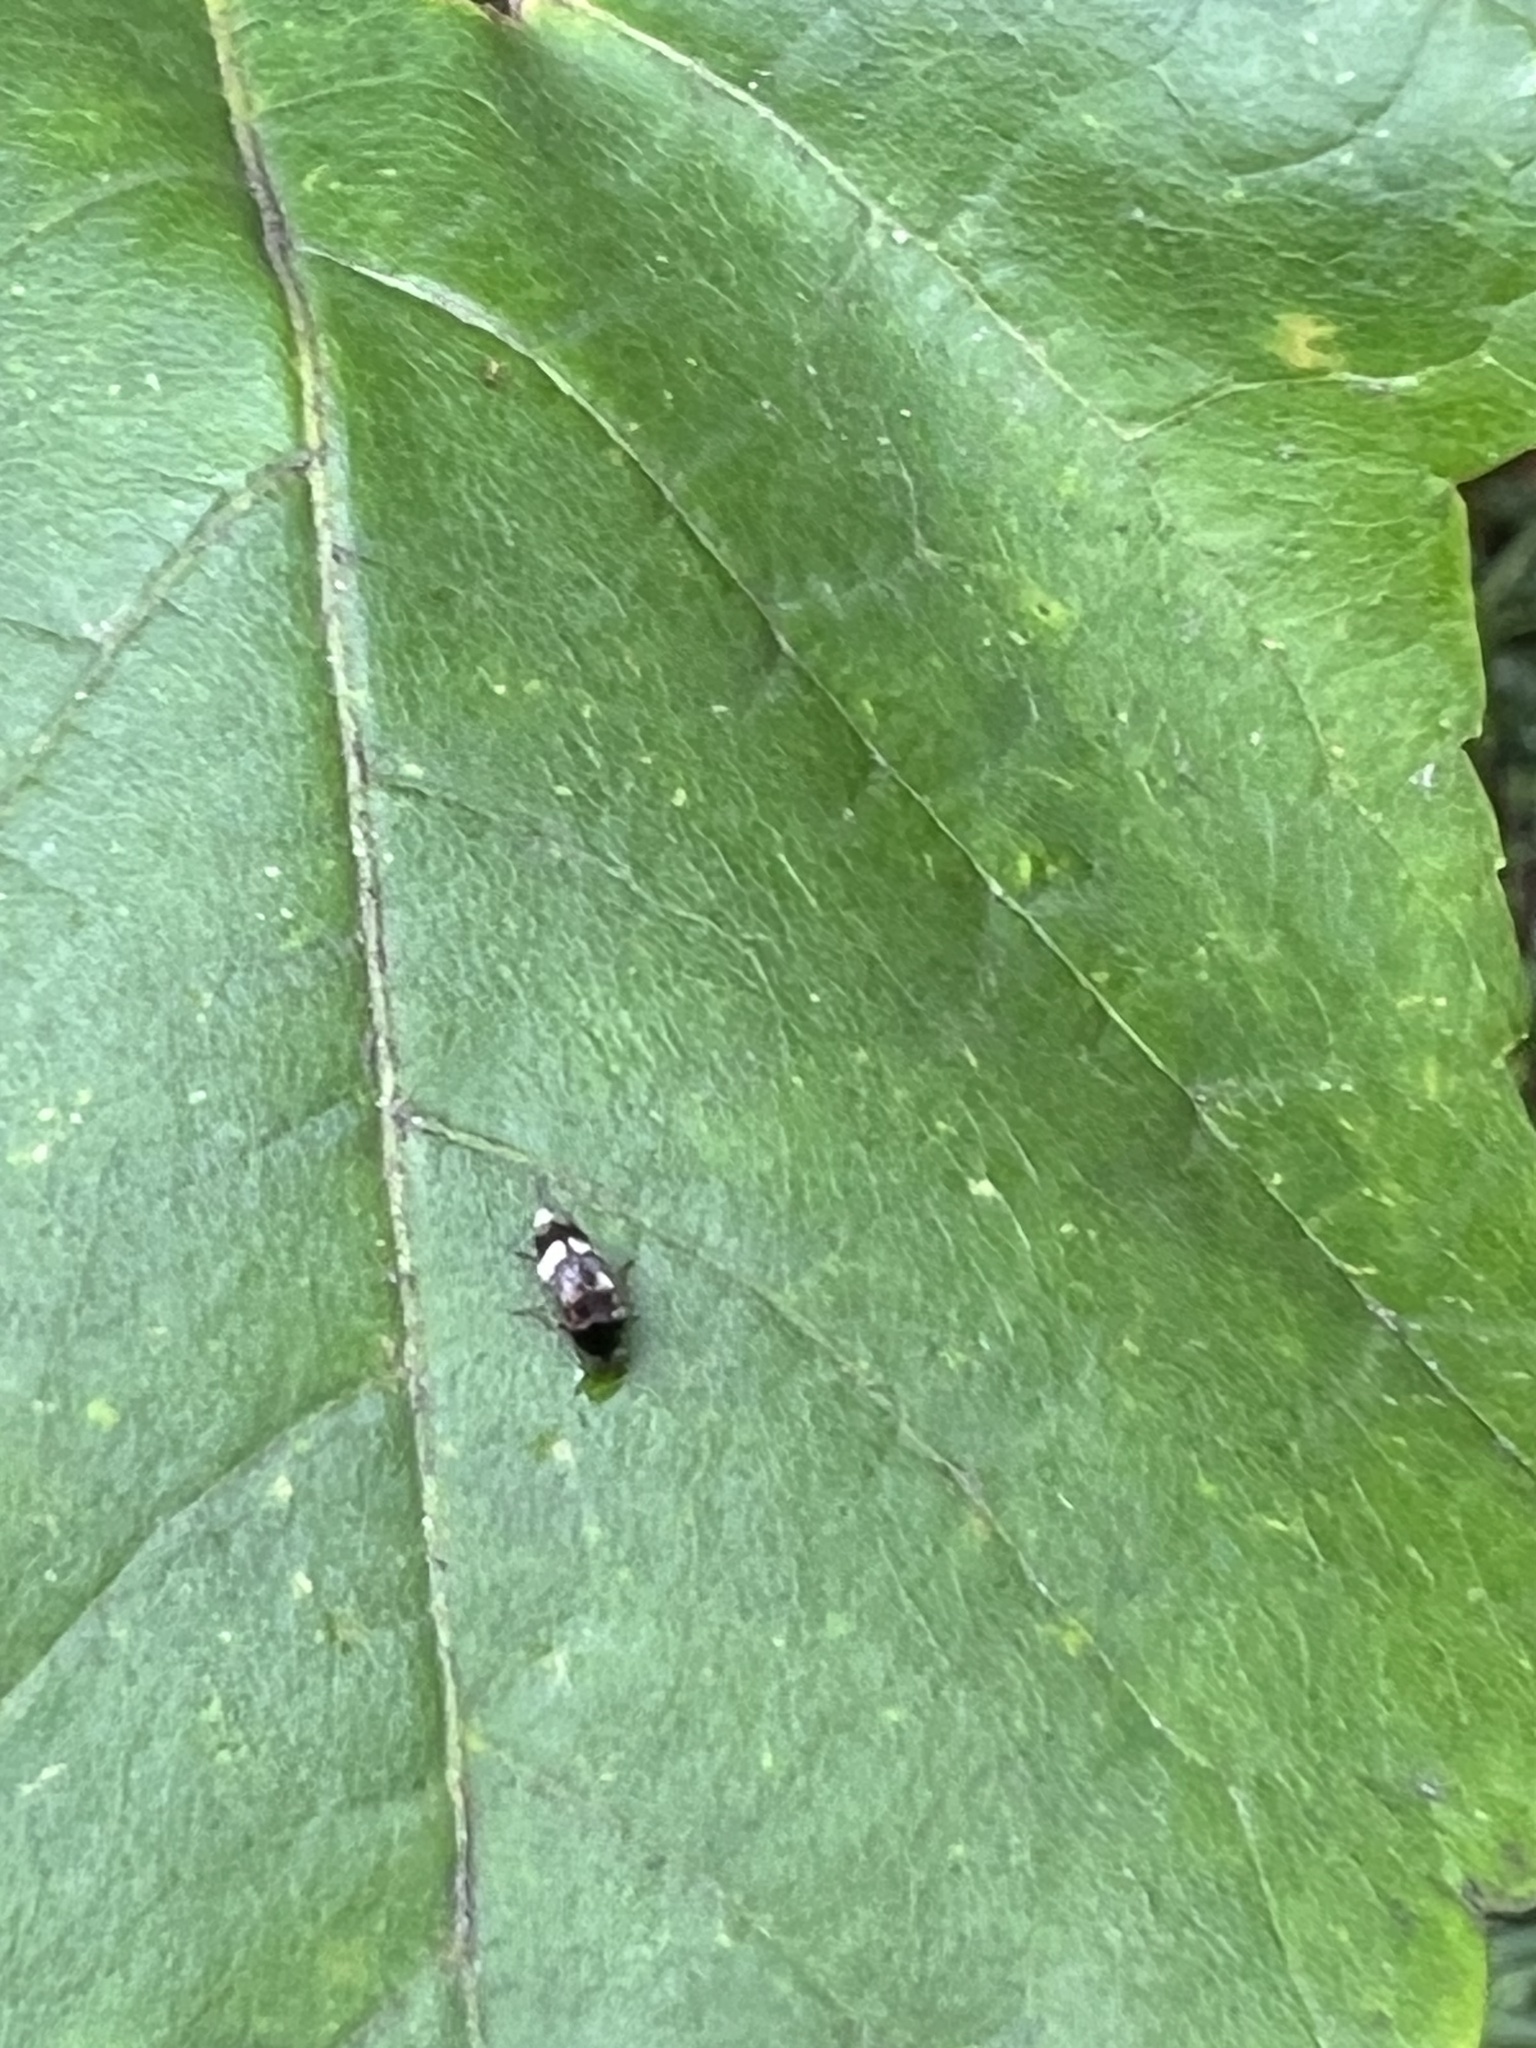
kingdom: Animalia
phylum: Arthropoda
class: Insecta
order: Coleoptera
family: Mordellidae
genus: Falsomordellistena
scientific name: Falsomordellistena pubescens
